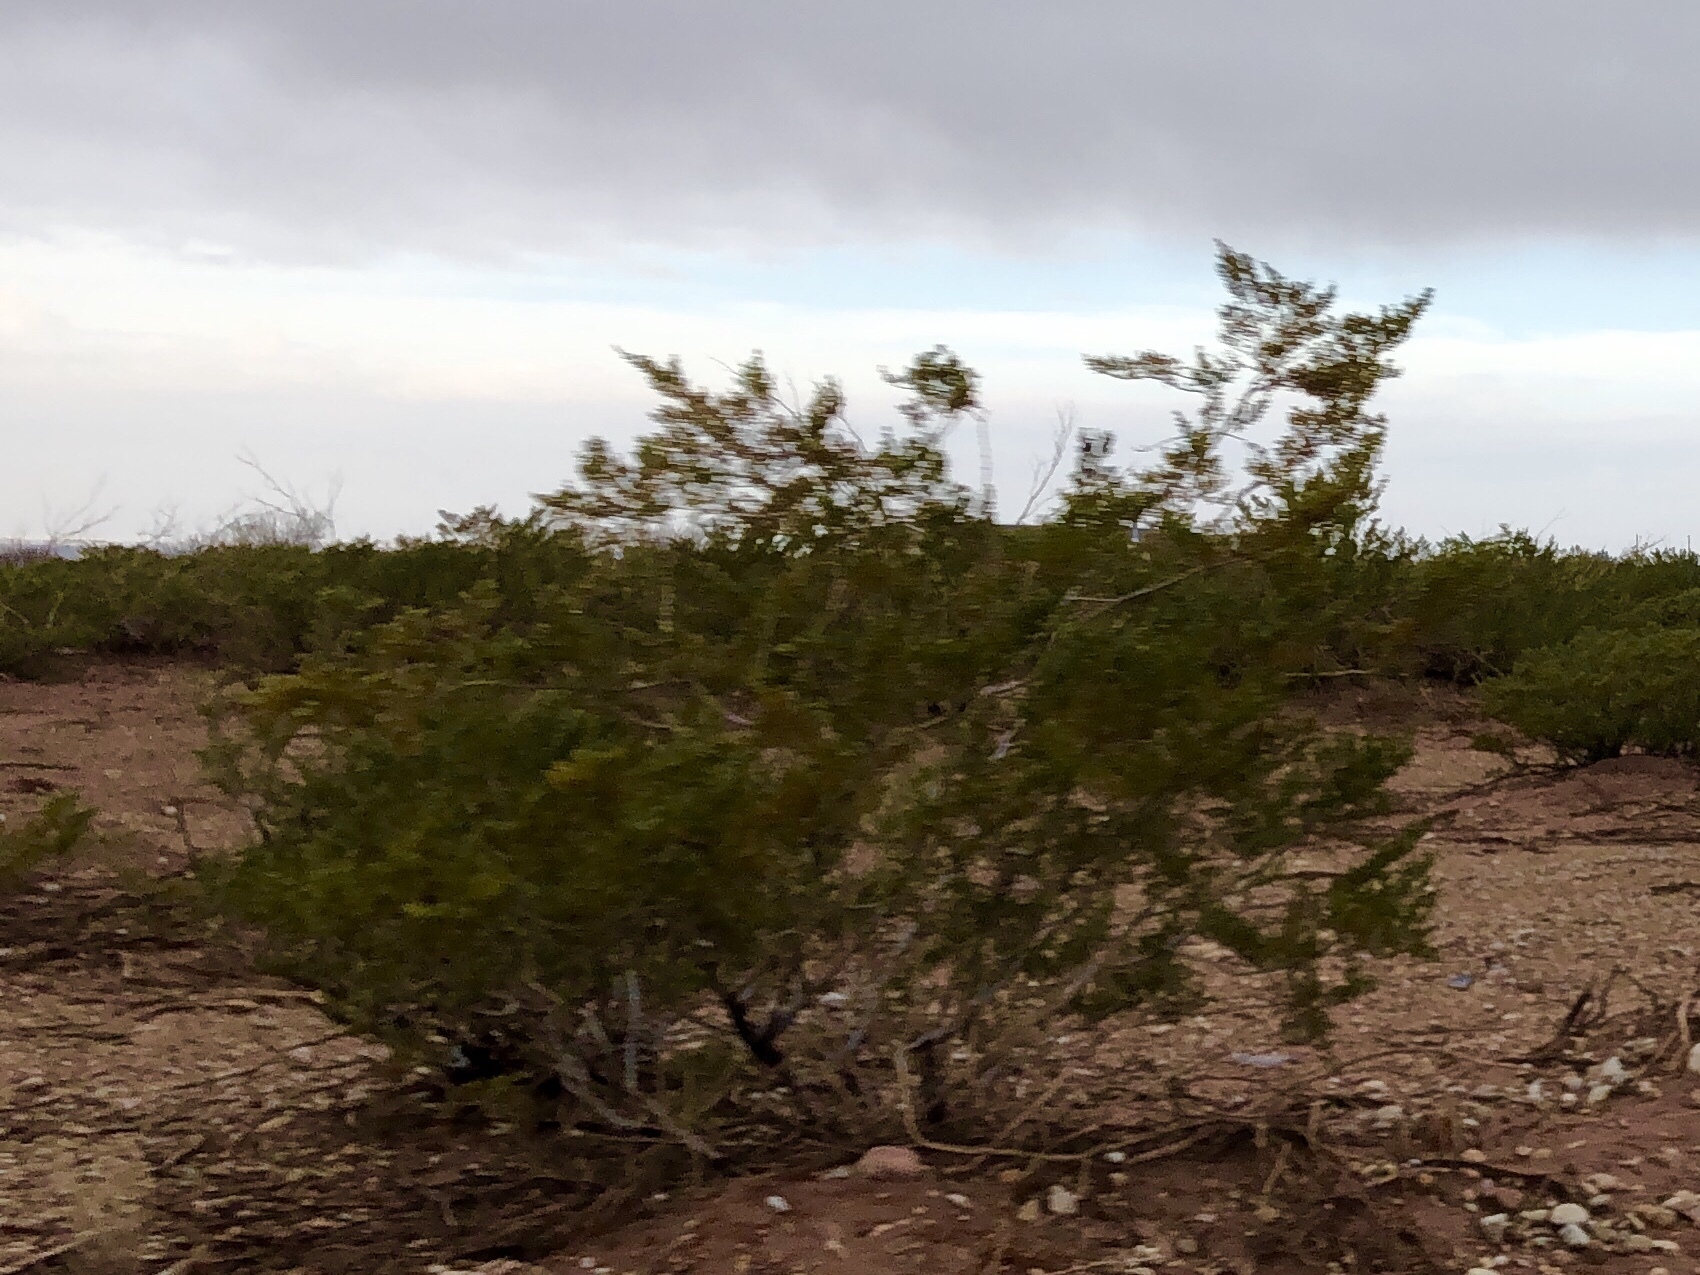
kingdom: Plantae
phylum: Tracheophyta
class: Magnoliopsida
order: Zygophyllales
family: Zygophyllaceae
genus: Larrea
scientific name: Larrea tridentata
